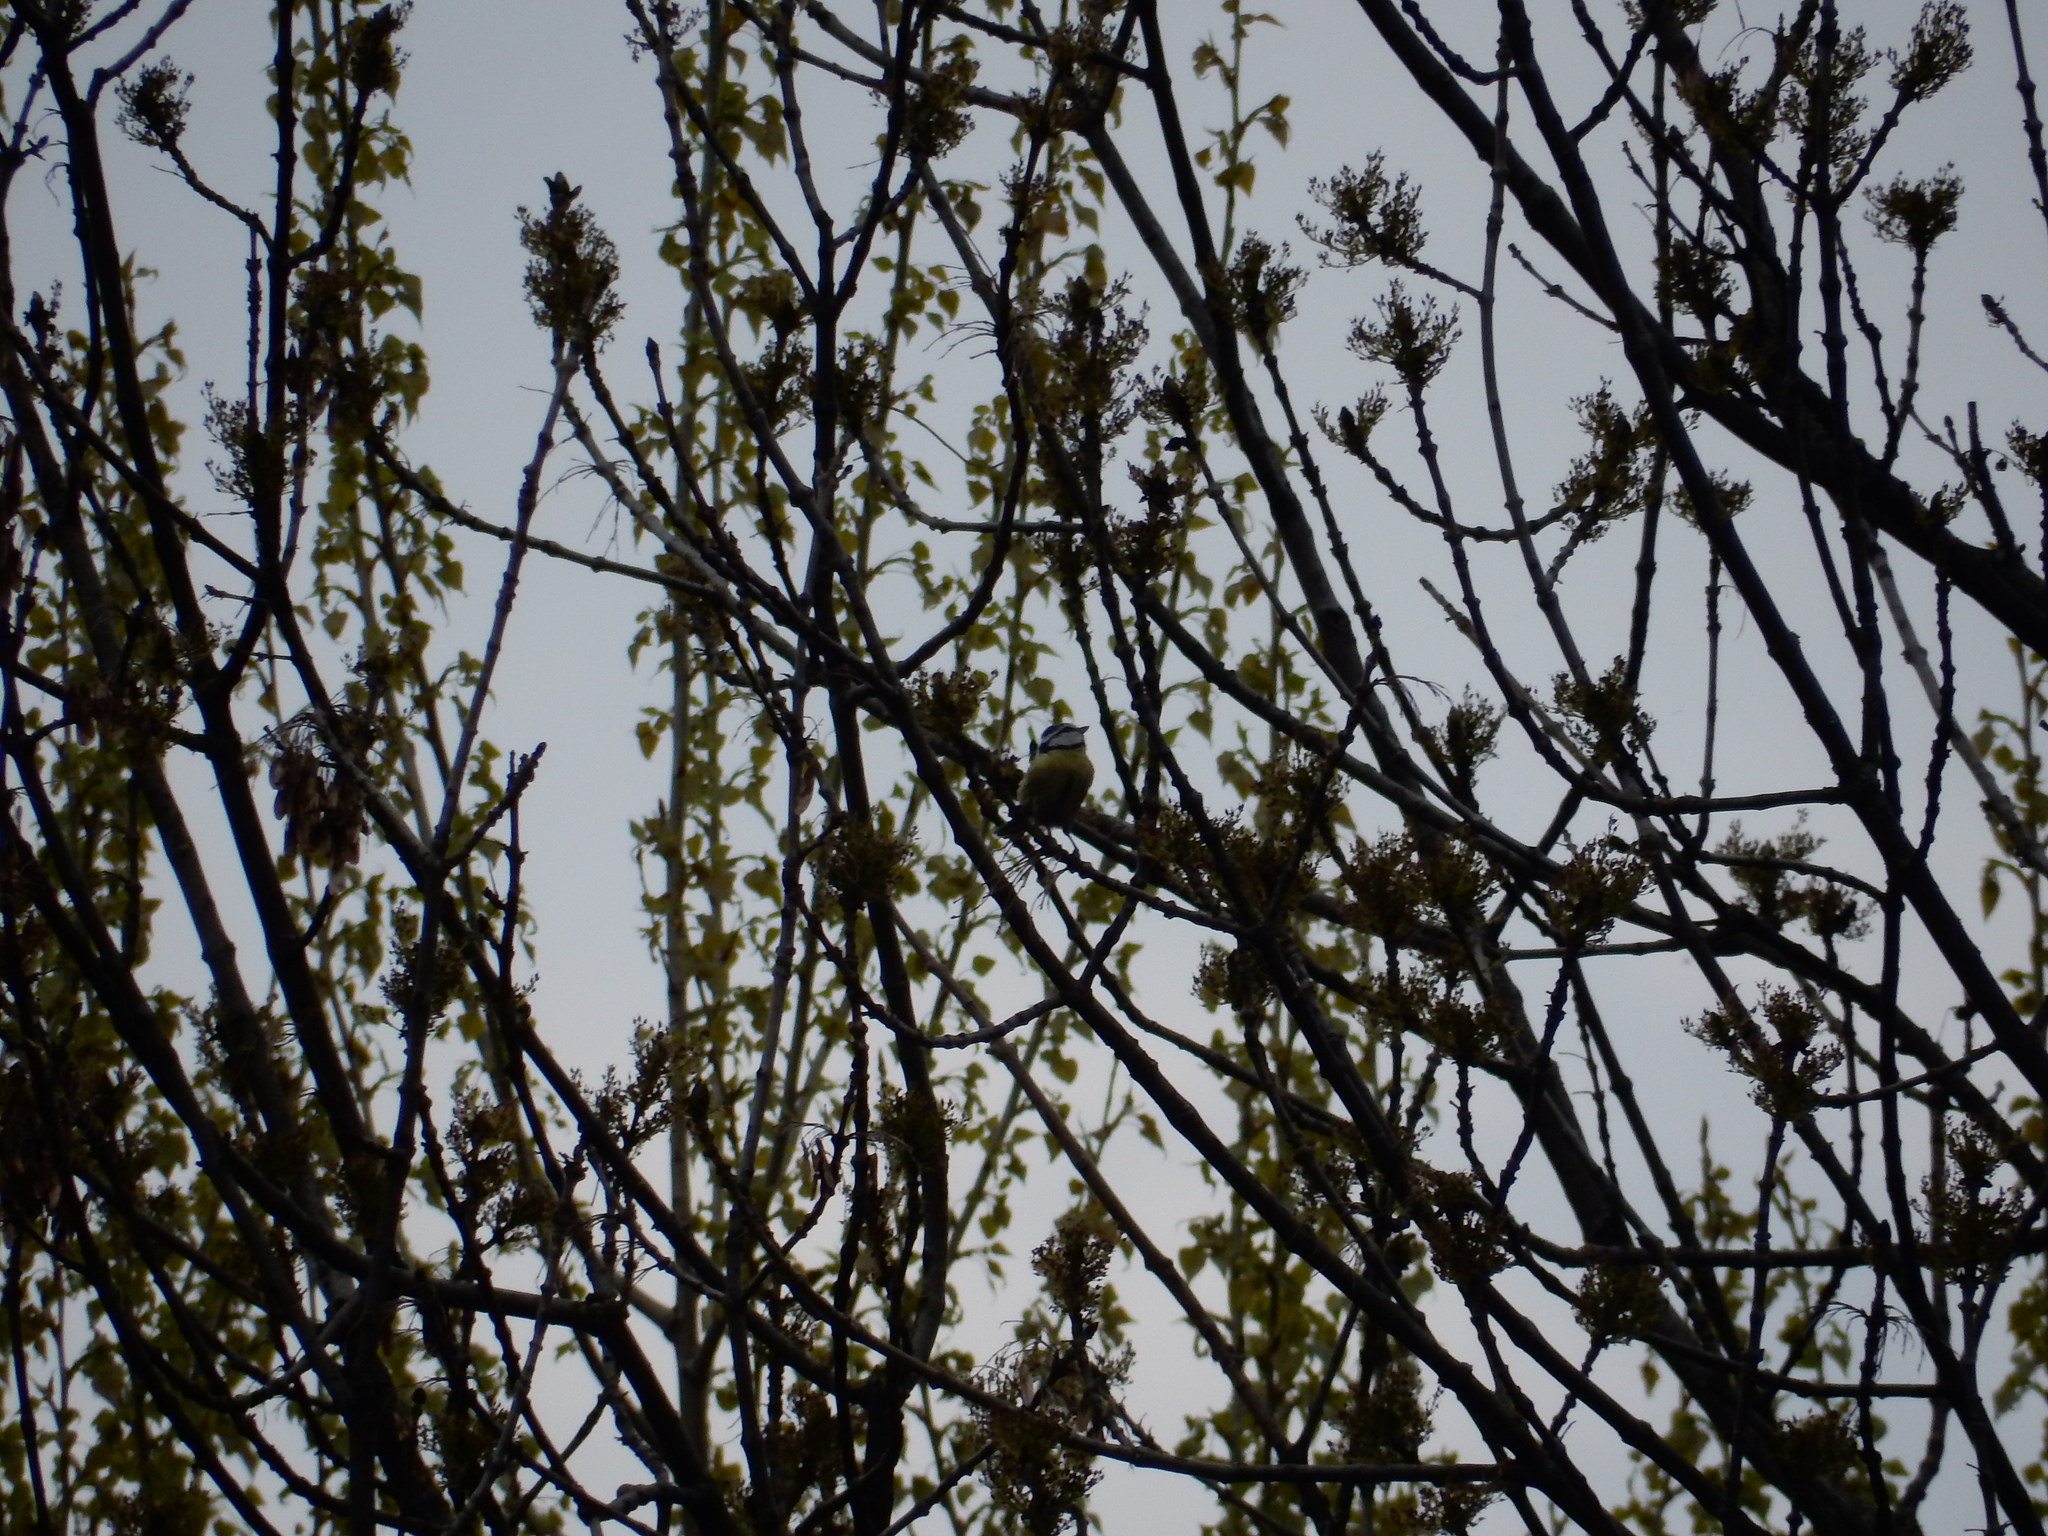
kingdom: Animalia
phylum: Chordata
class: Aves
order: Passeriformes
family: Paridae
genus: Cyanistes
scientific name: Cyanistes caeruleus
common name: Eurasian blue tit
